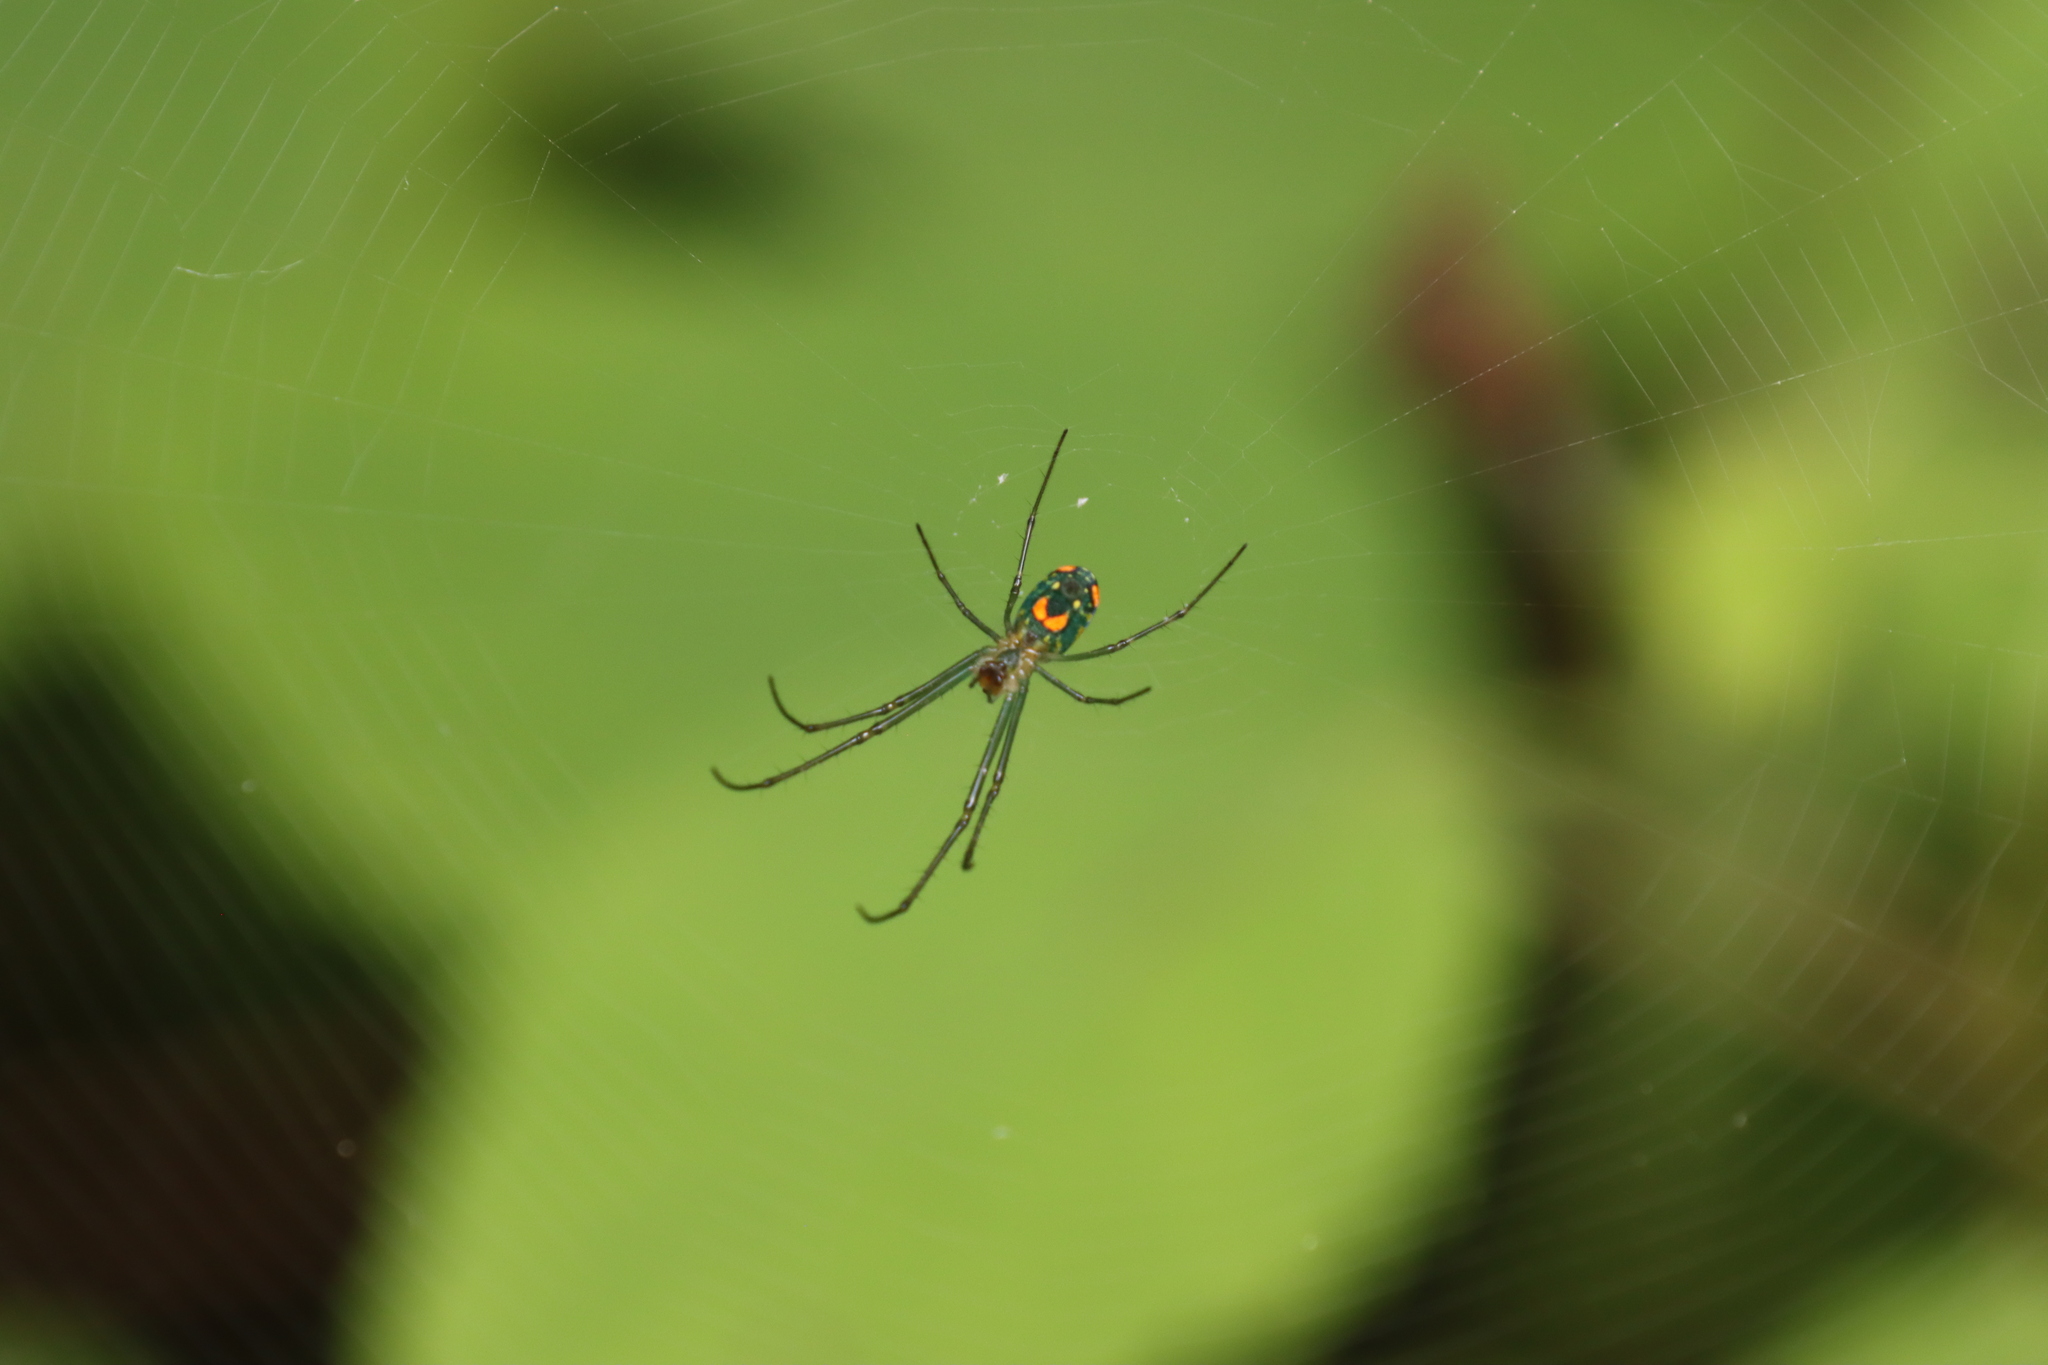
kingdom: Animalia
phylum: Arthropoda
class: Arachnida
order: Araneae
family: Tetragnathidae
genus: Leucauge
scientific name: Leucauge argyrobapta
